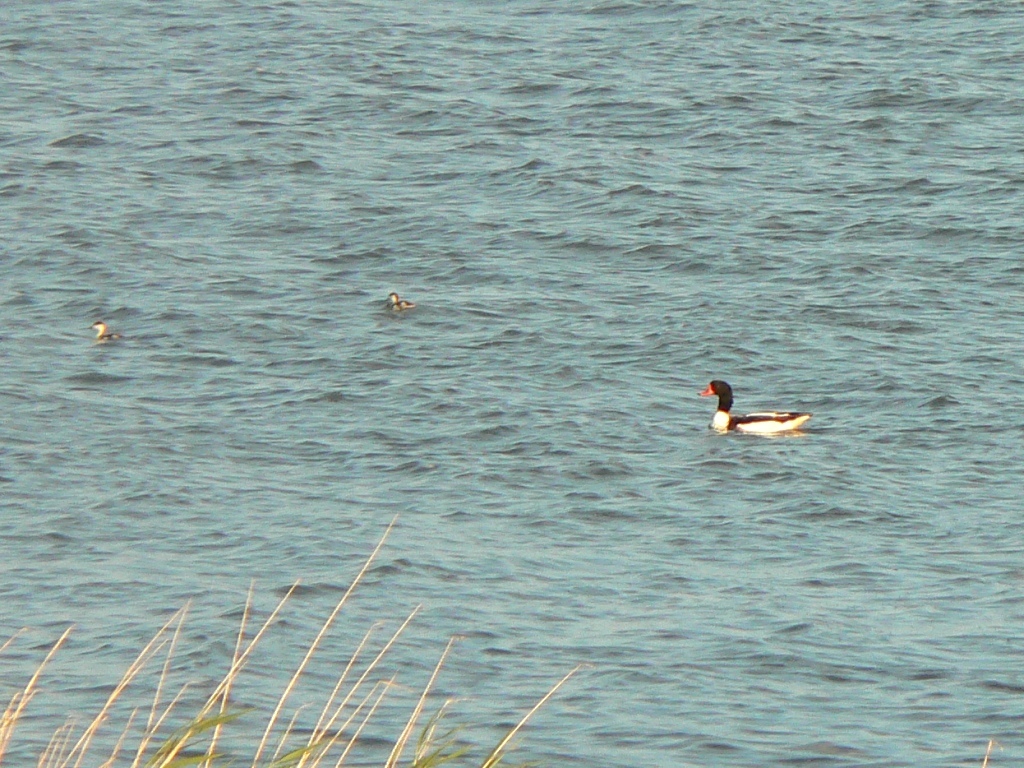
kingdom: Animalia
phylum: Chordata
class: Aves
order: Anseriformes
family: Anatidae
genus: Tadorna
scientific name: Tadorna tadorna
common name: Common shelduck
